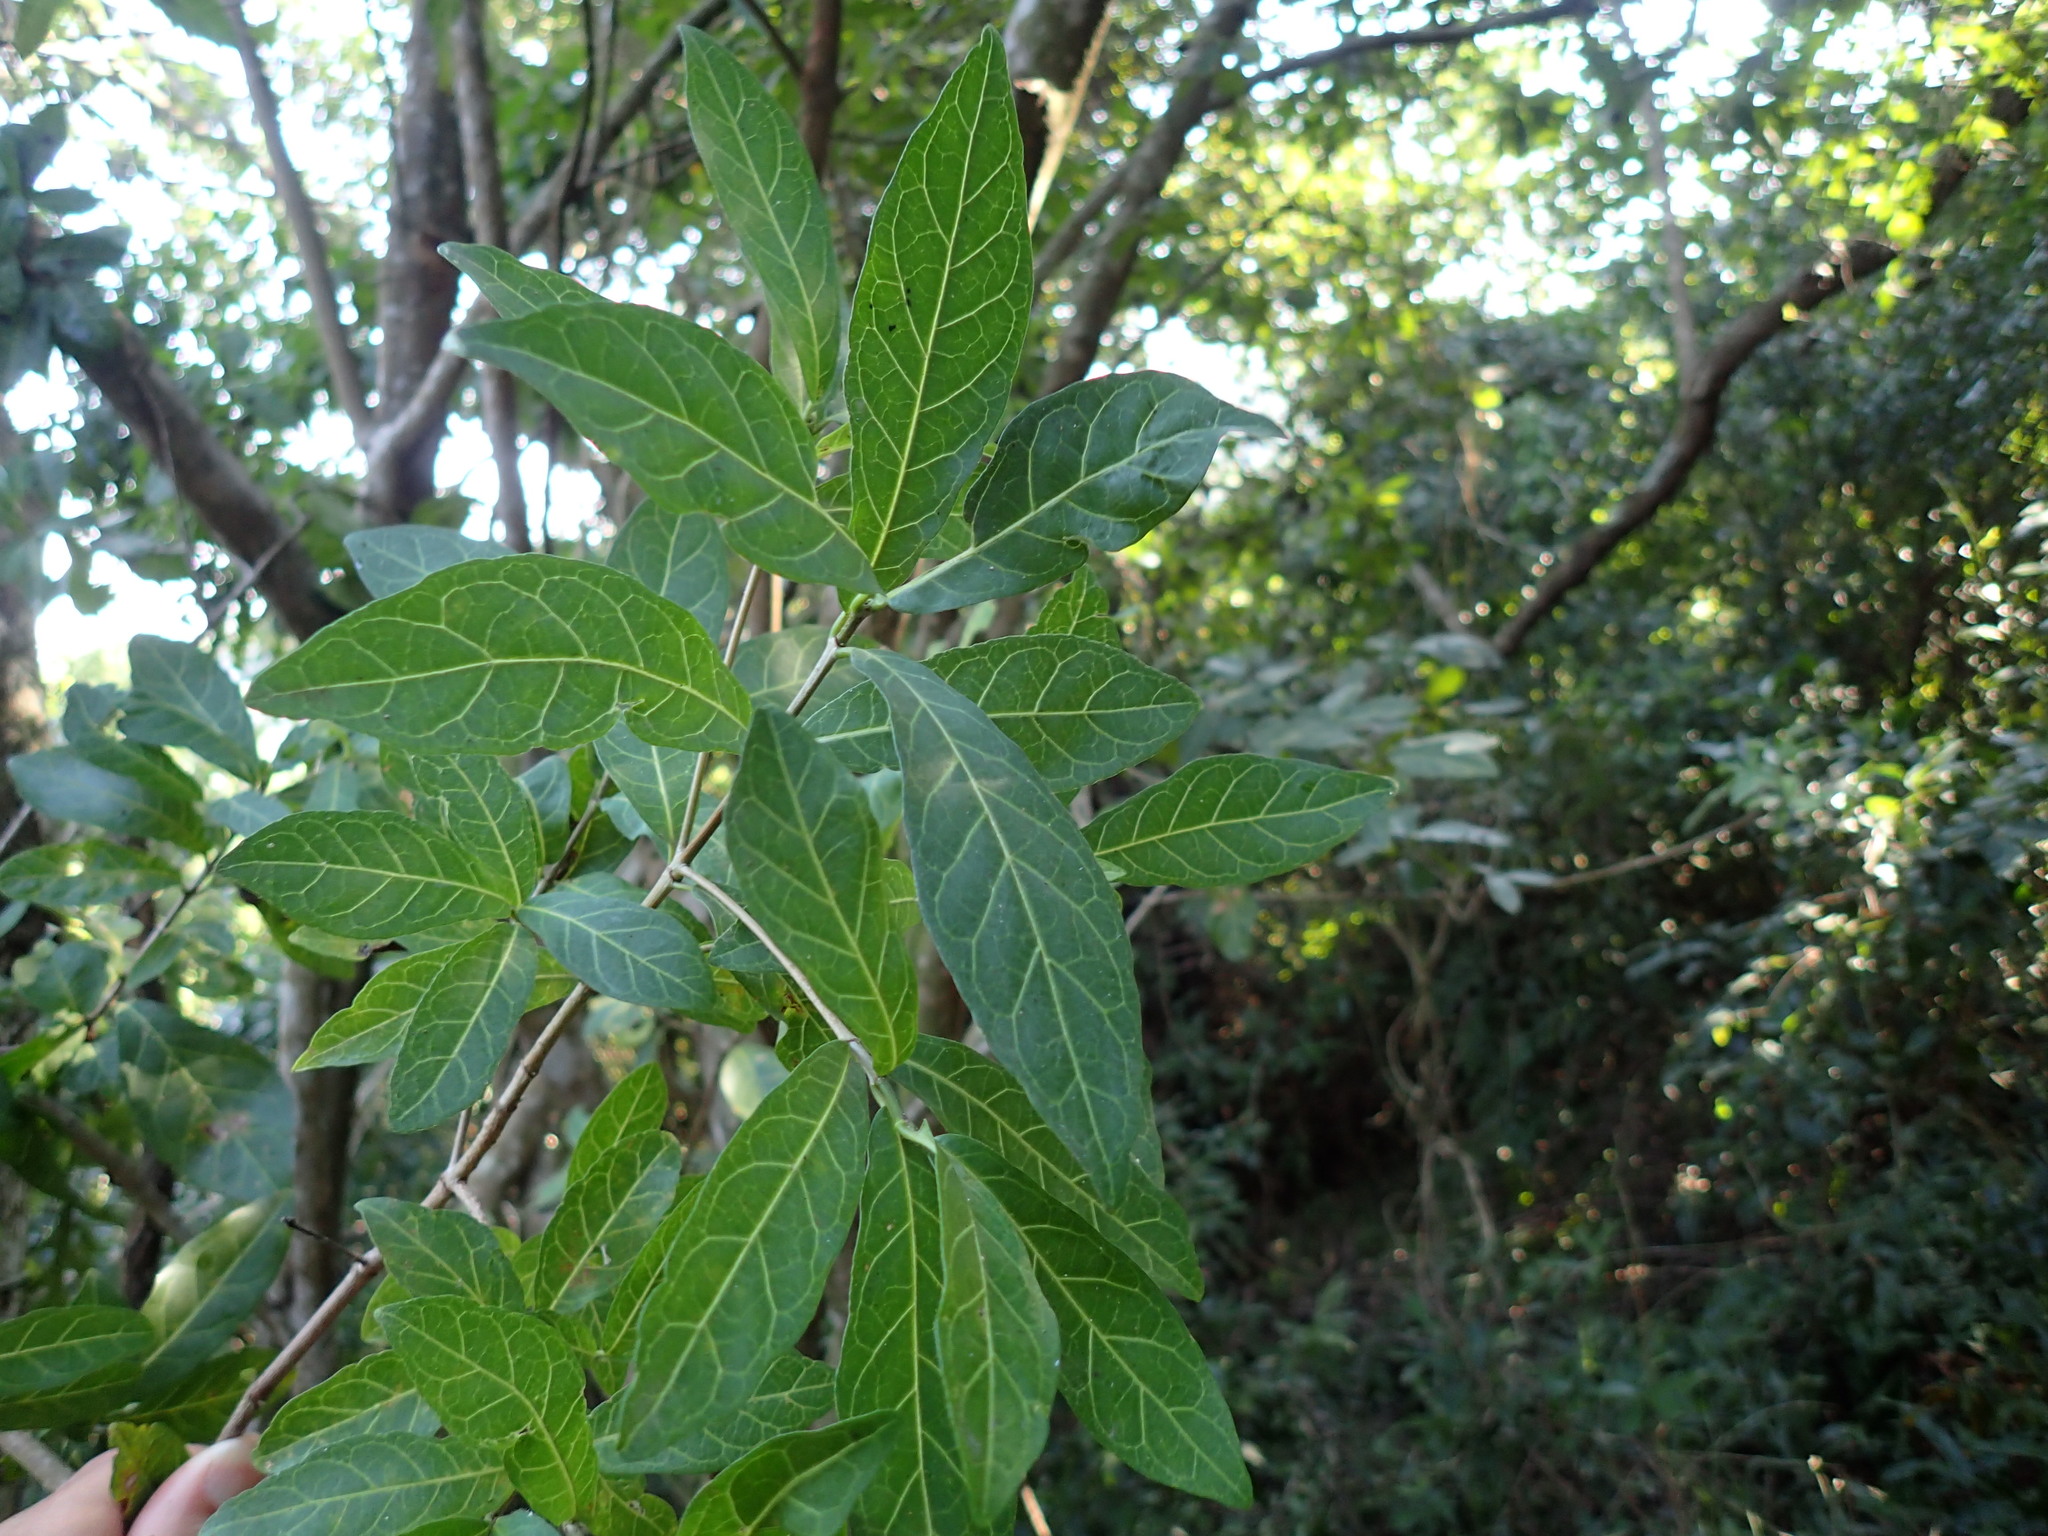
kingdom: Plantae
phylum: Tracheophyta
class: Magnoliopsida
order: Gentianales
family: Rubiaceae
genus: Rothmannia
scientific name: Rothmannia globosa
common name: September bells
